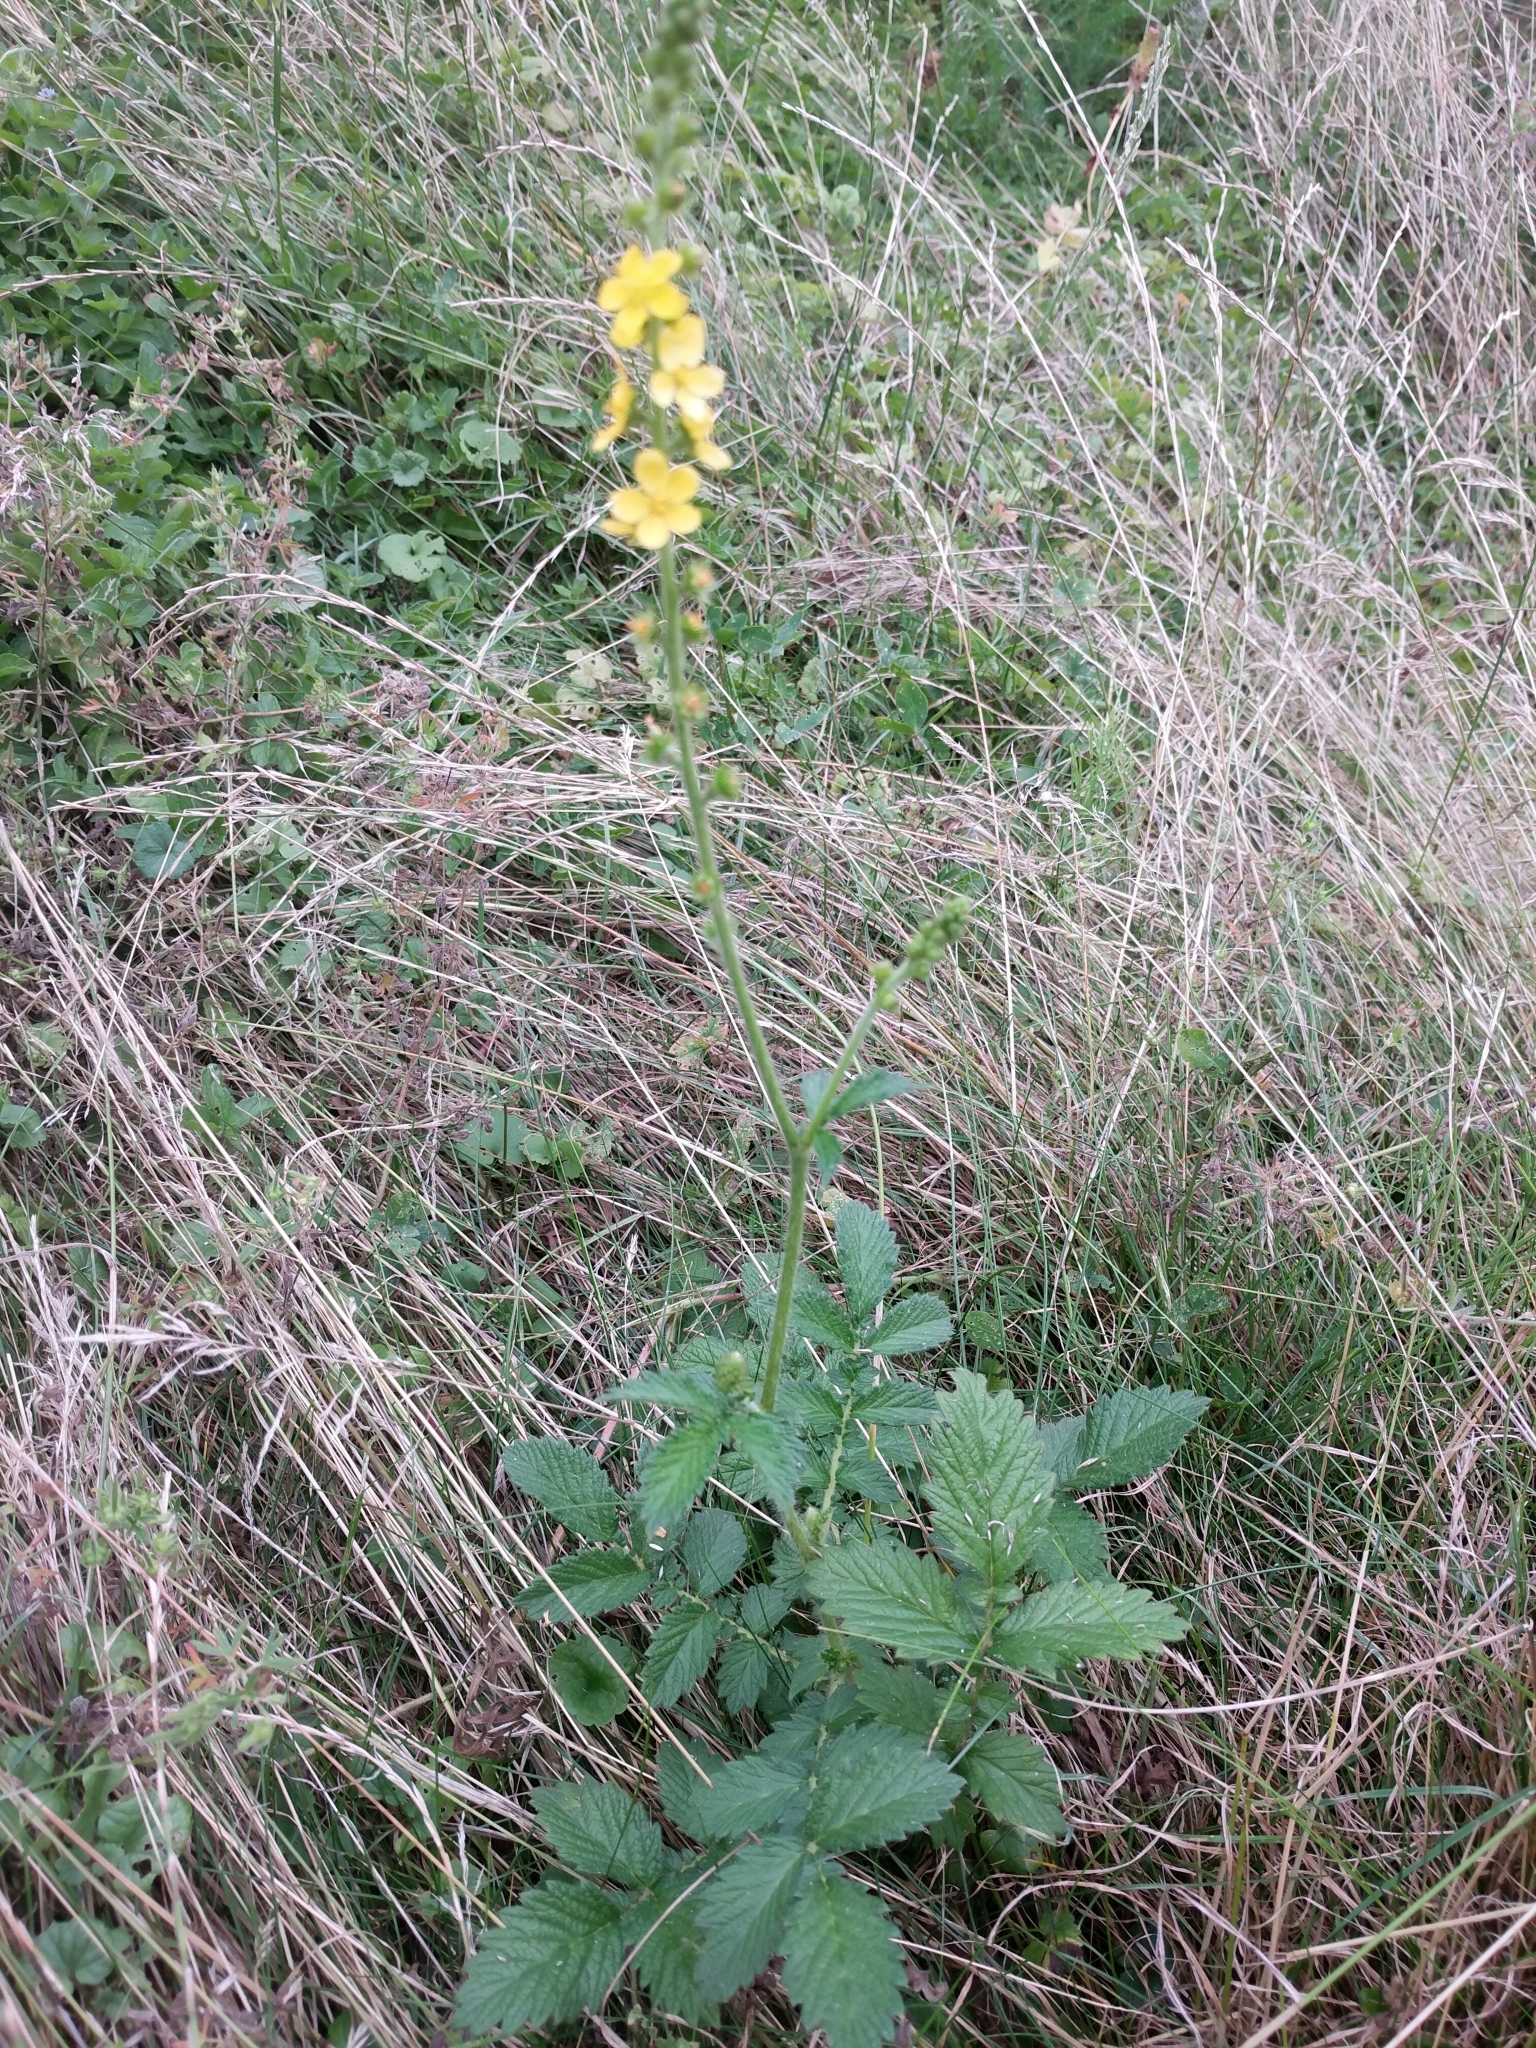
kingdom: Plantae
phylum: Tracheophyta
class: Magnoliopsida
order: Rosales
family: Rosaceae
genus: Agrimonia
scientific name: Agrimonia eupatoria
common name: Agrimony
